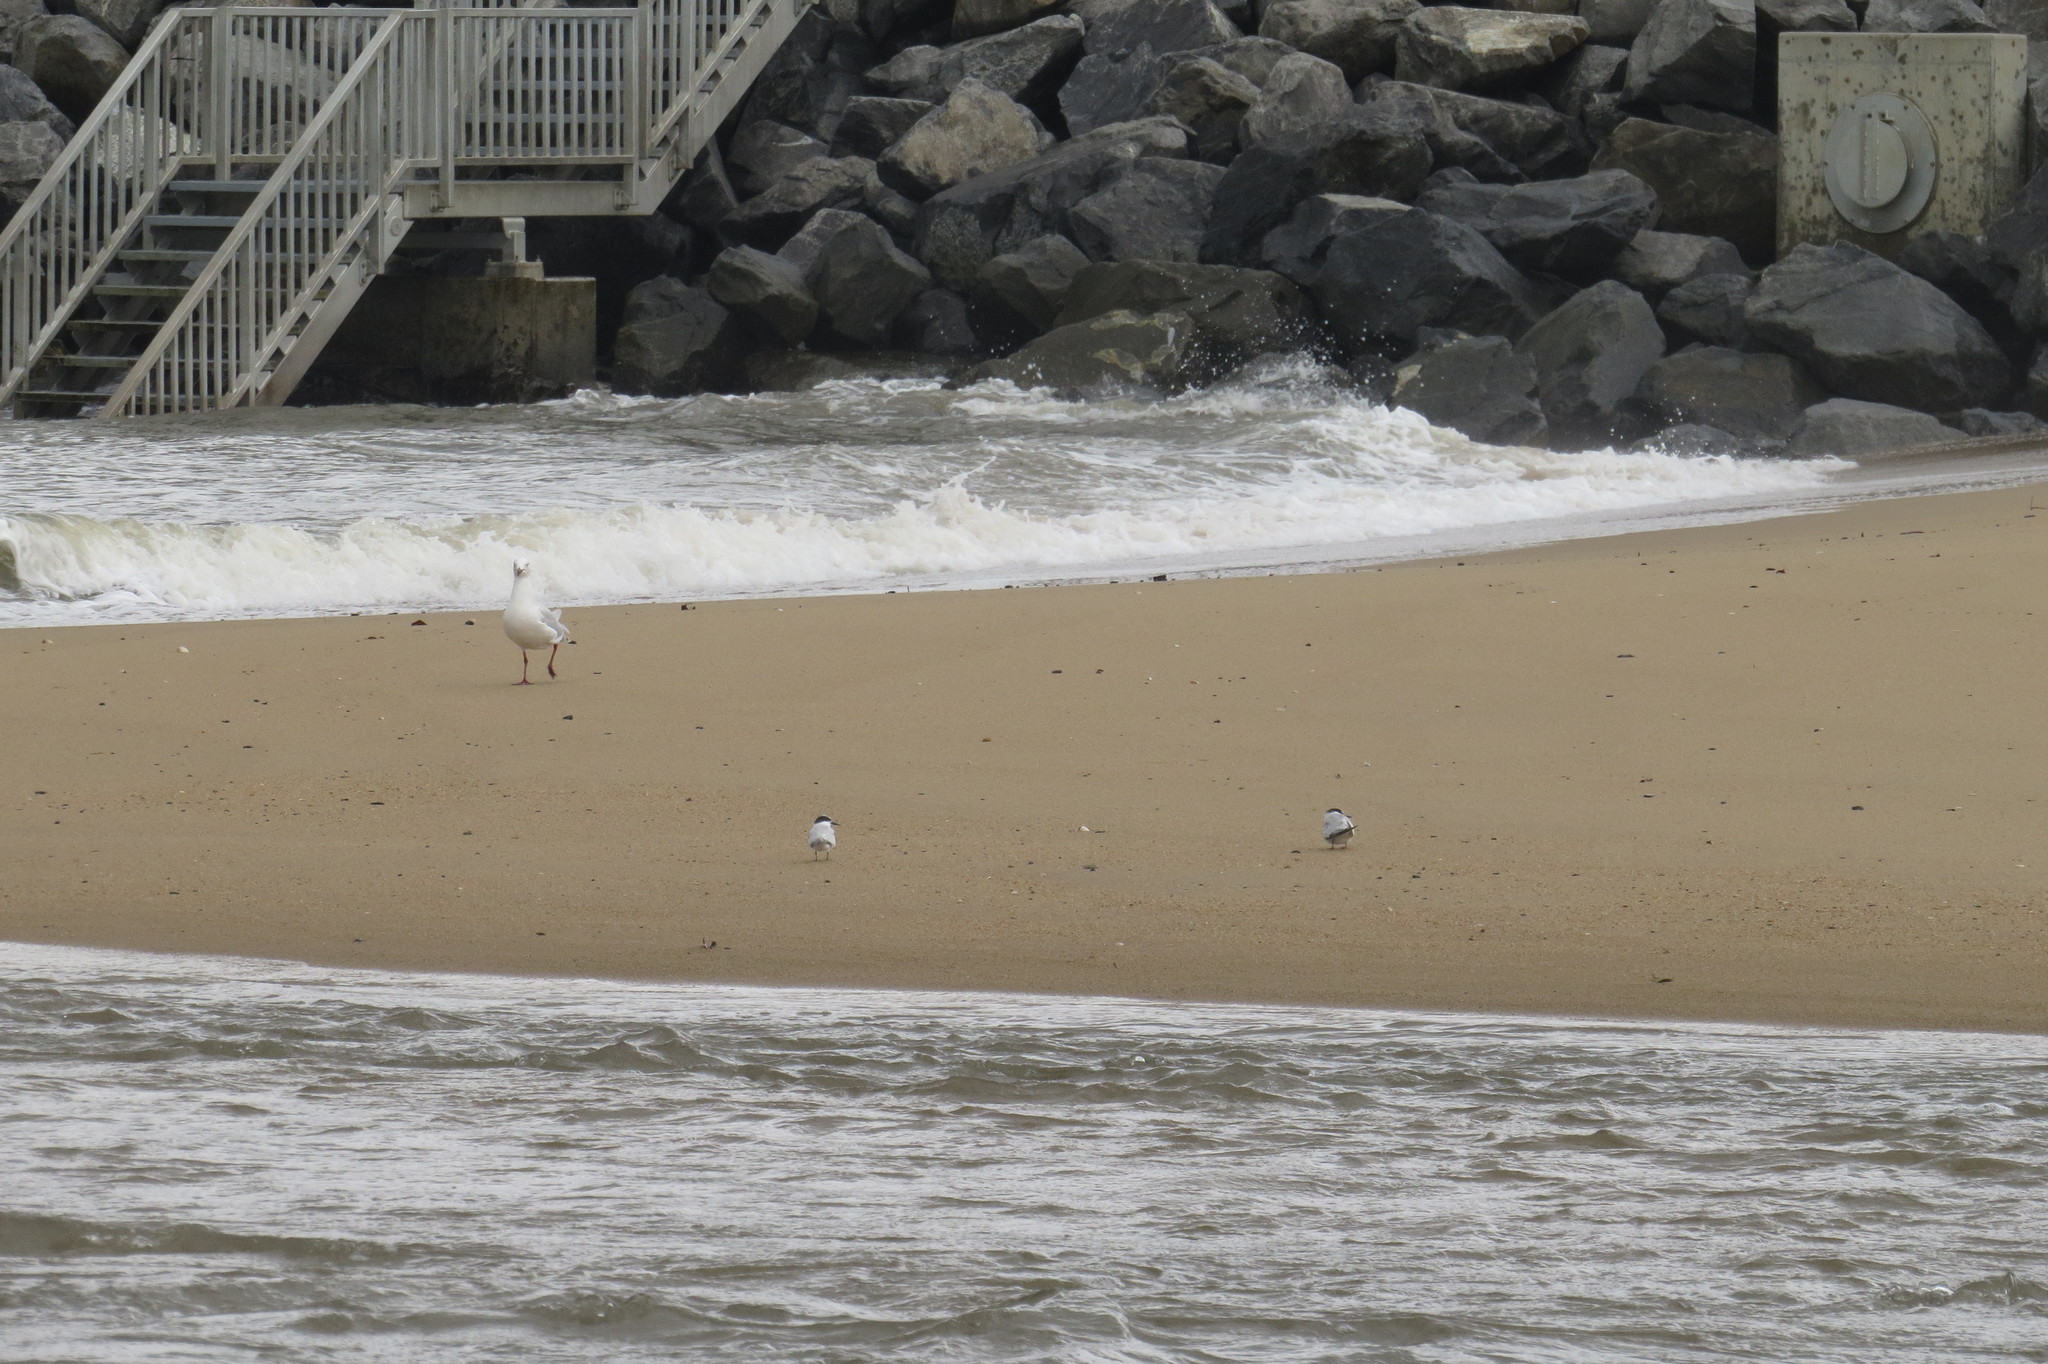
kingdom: Animalia
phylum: Chordata
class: Aves
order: Charadriiformes
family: Laridae
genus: Sternula
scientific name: Sternula albifrons
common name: Little tern
